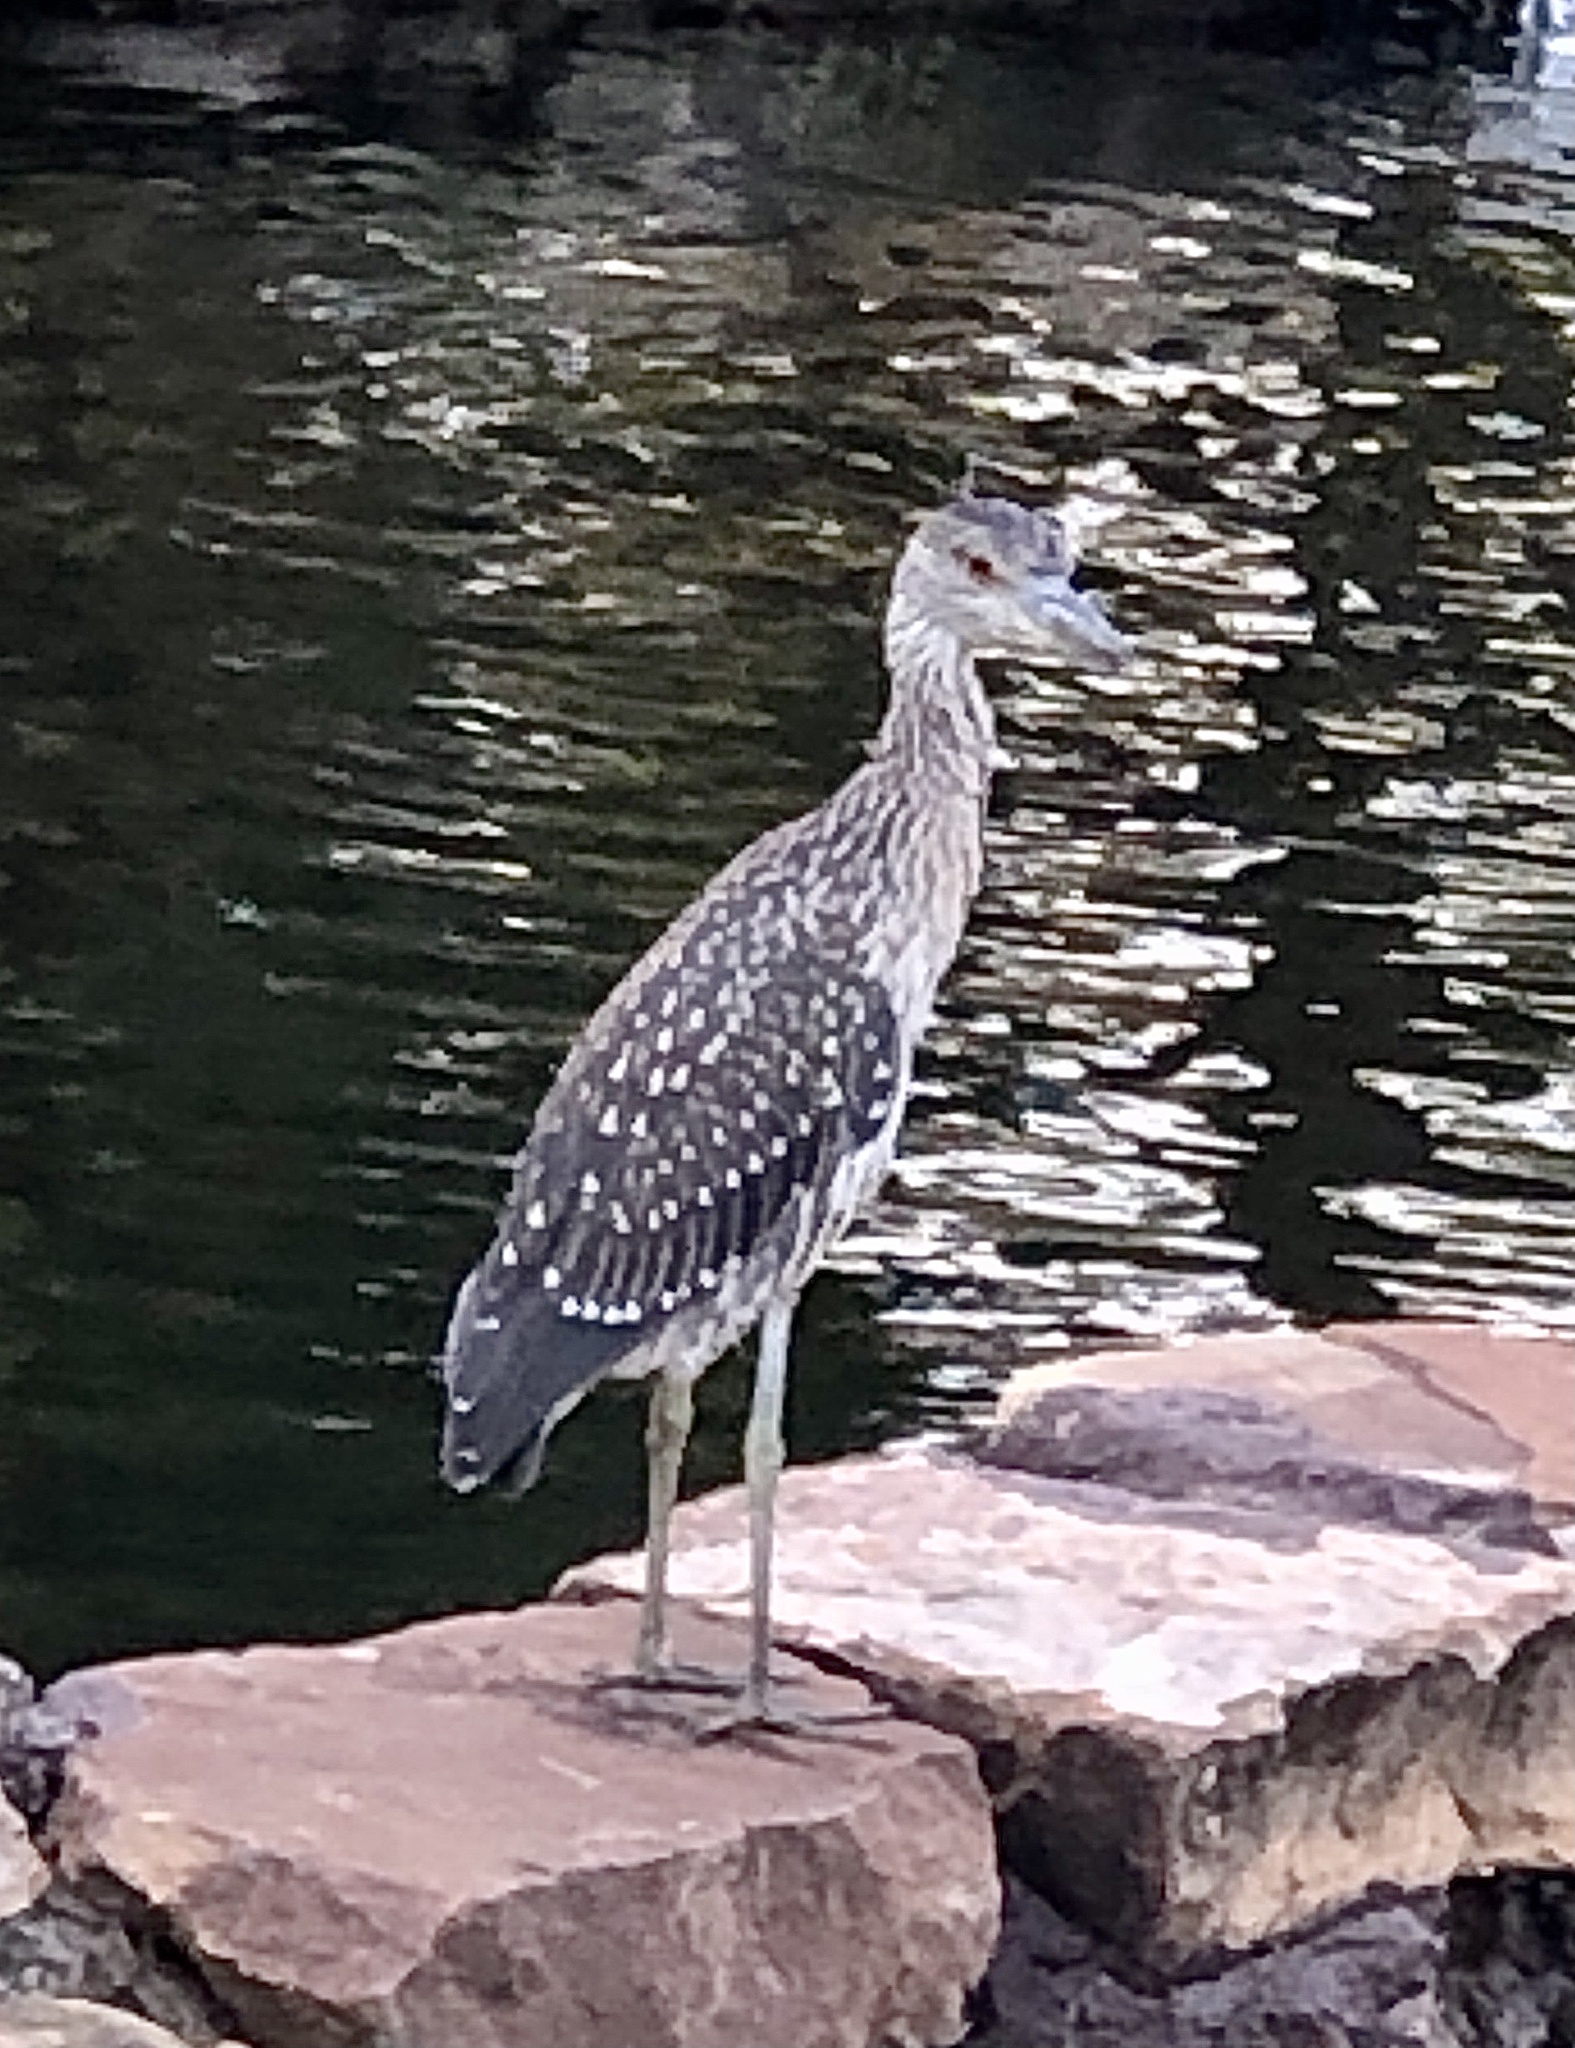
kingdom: Animalia
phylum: Chordata
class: Aves
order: Pelecaniformes
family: Ardeidae
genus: Nyctanassa
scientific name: Nyctanassa violacea
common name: Yellow-crowned night heron
